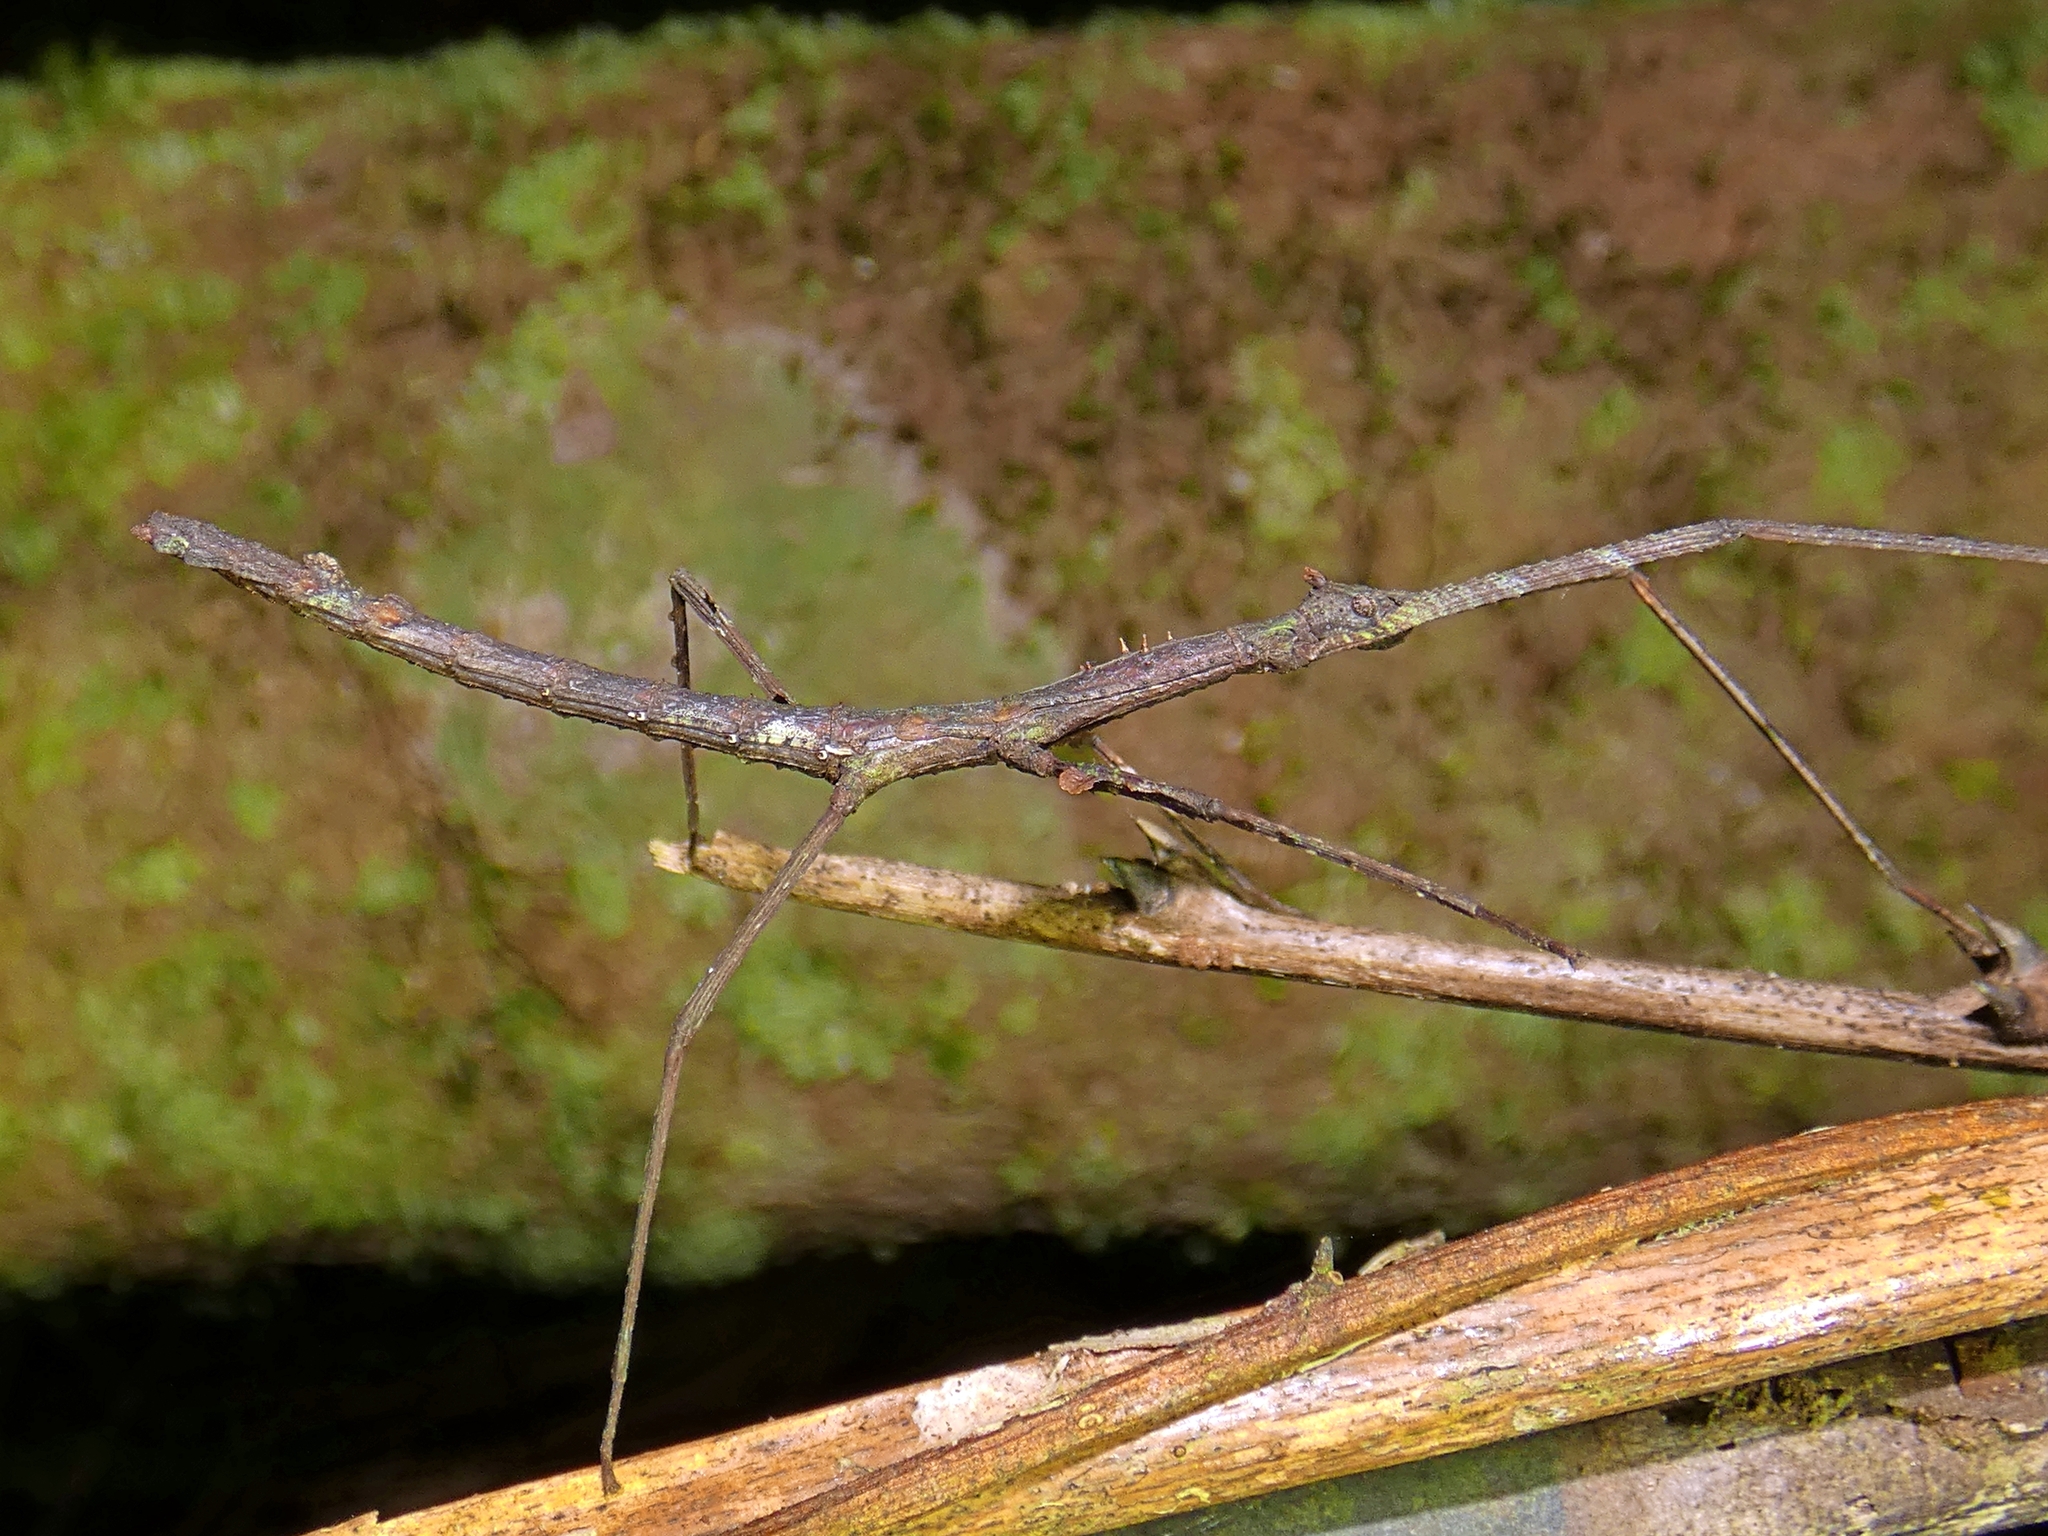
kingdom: Animalia
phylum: Arthropoda
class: Insecta
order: Phasmida
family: Phasmatidae
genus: Onchestus
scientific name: Onchestus rentzi
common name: Rentz's stick-insect
